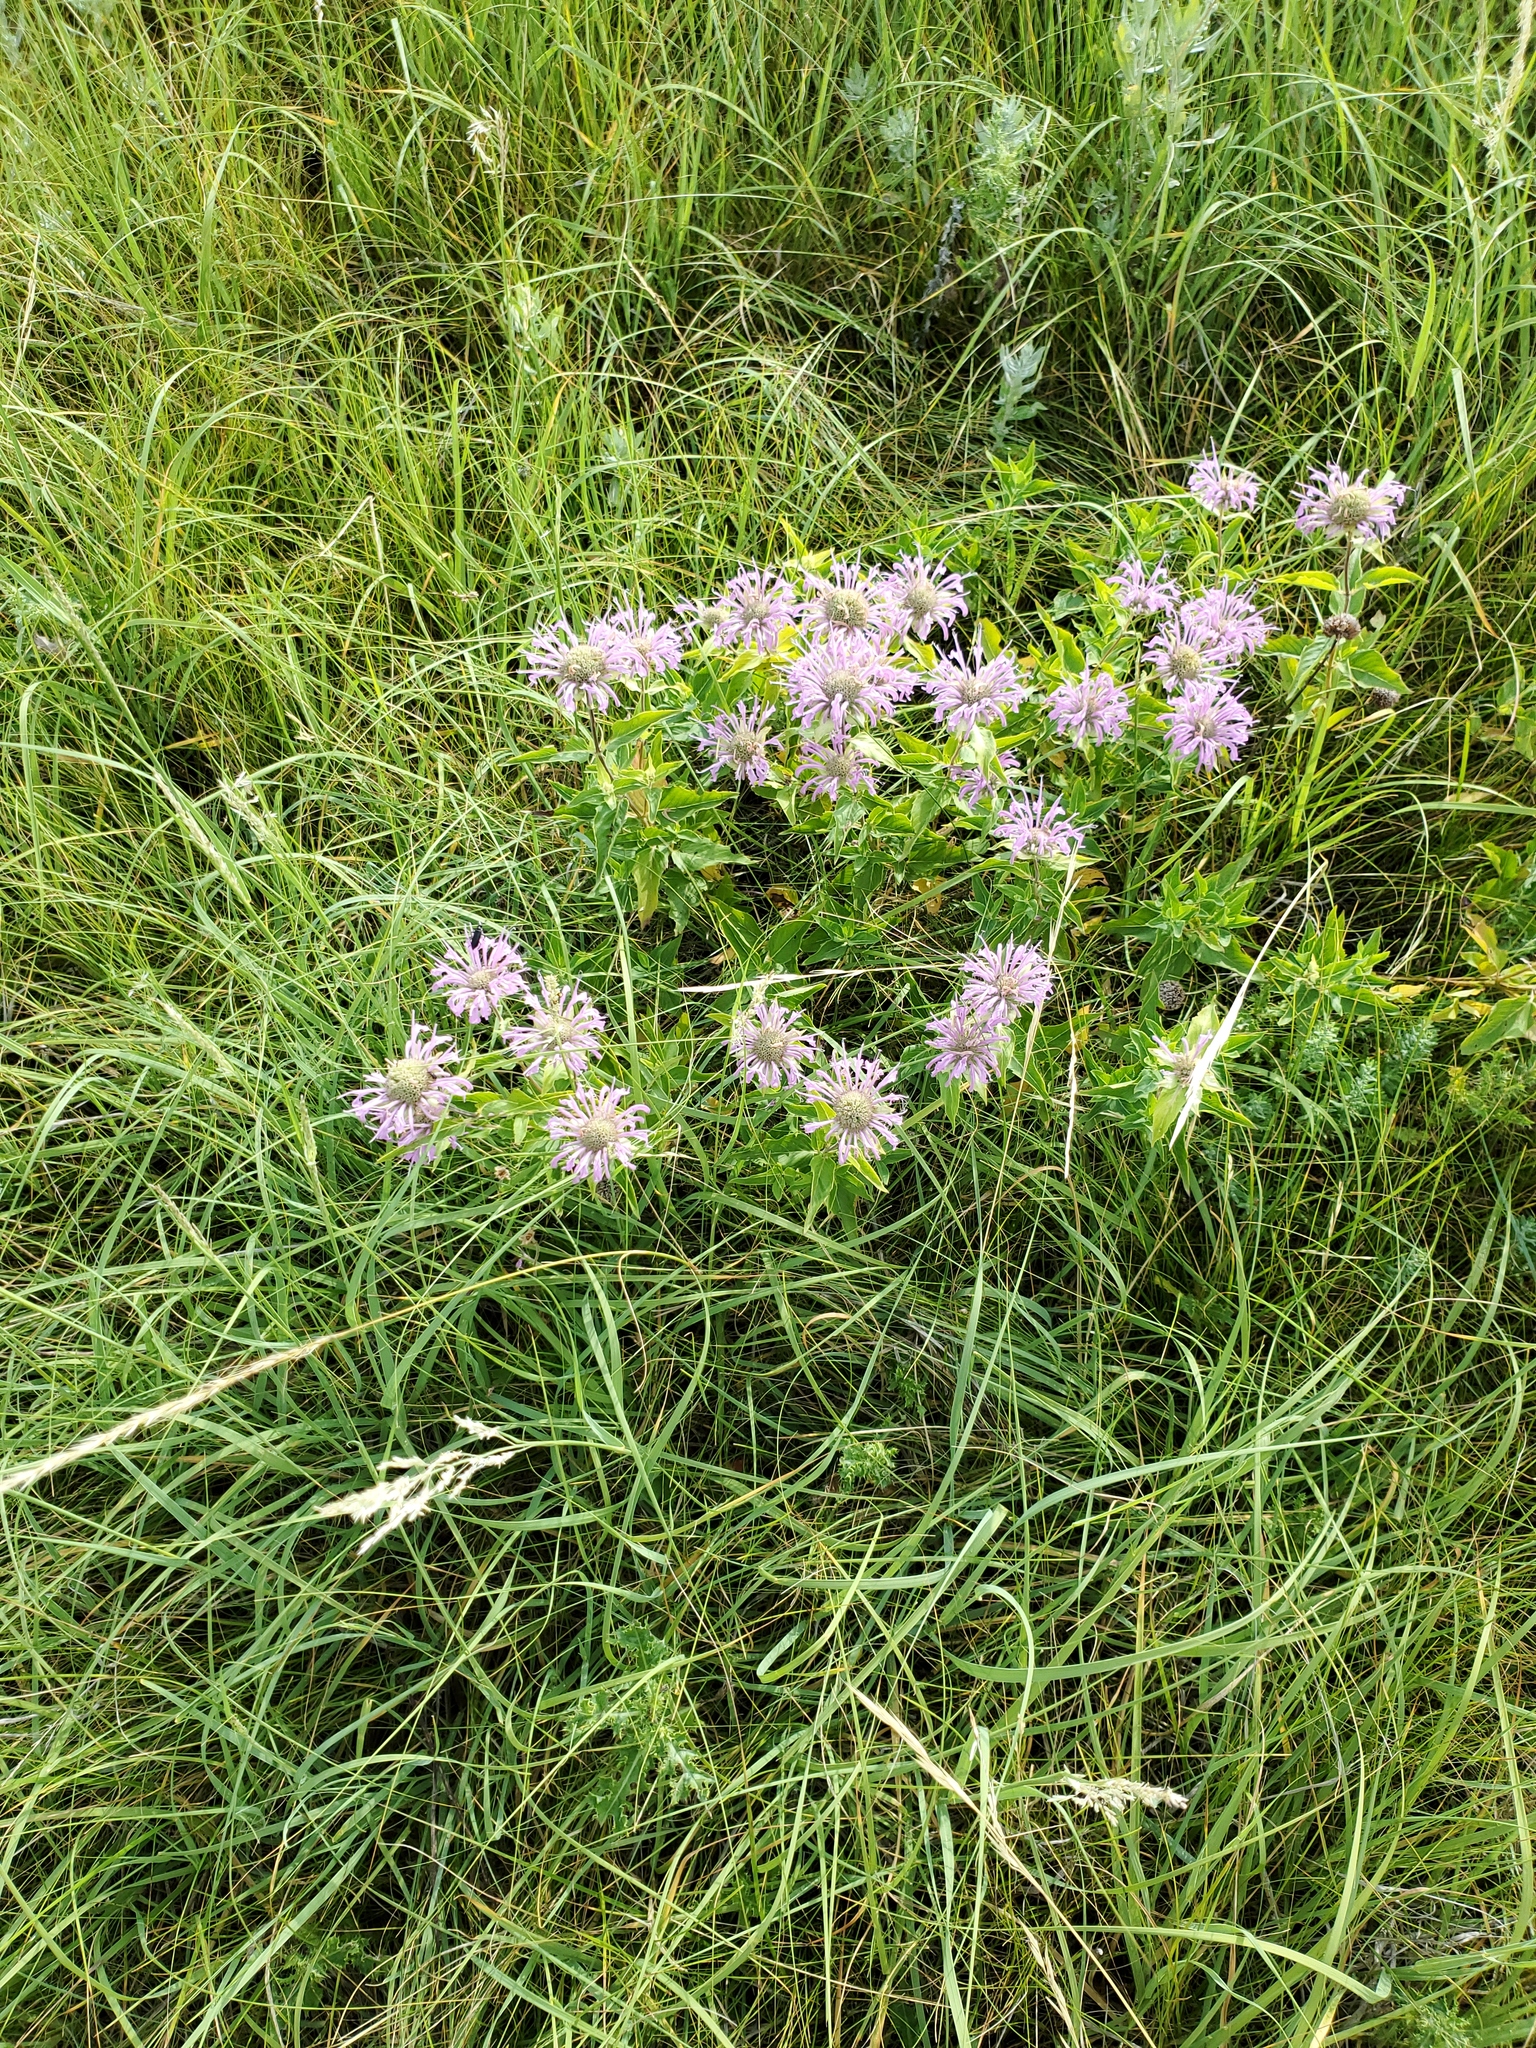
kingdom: Plantae
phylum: Tracheophyta
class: Magnoliopsida
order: Lamiales
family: Lamiaceae
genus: Monarda
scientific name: Monarda fistulosa
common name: Purple beebalm
